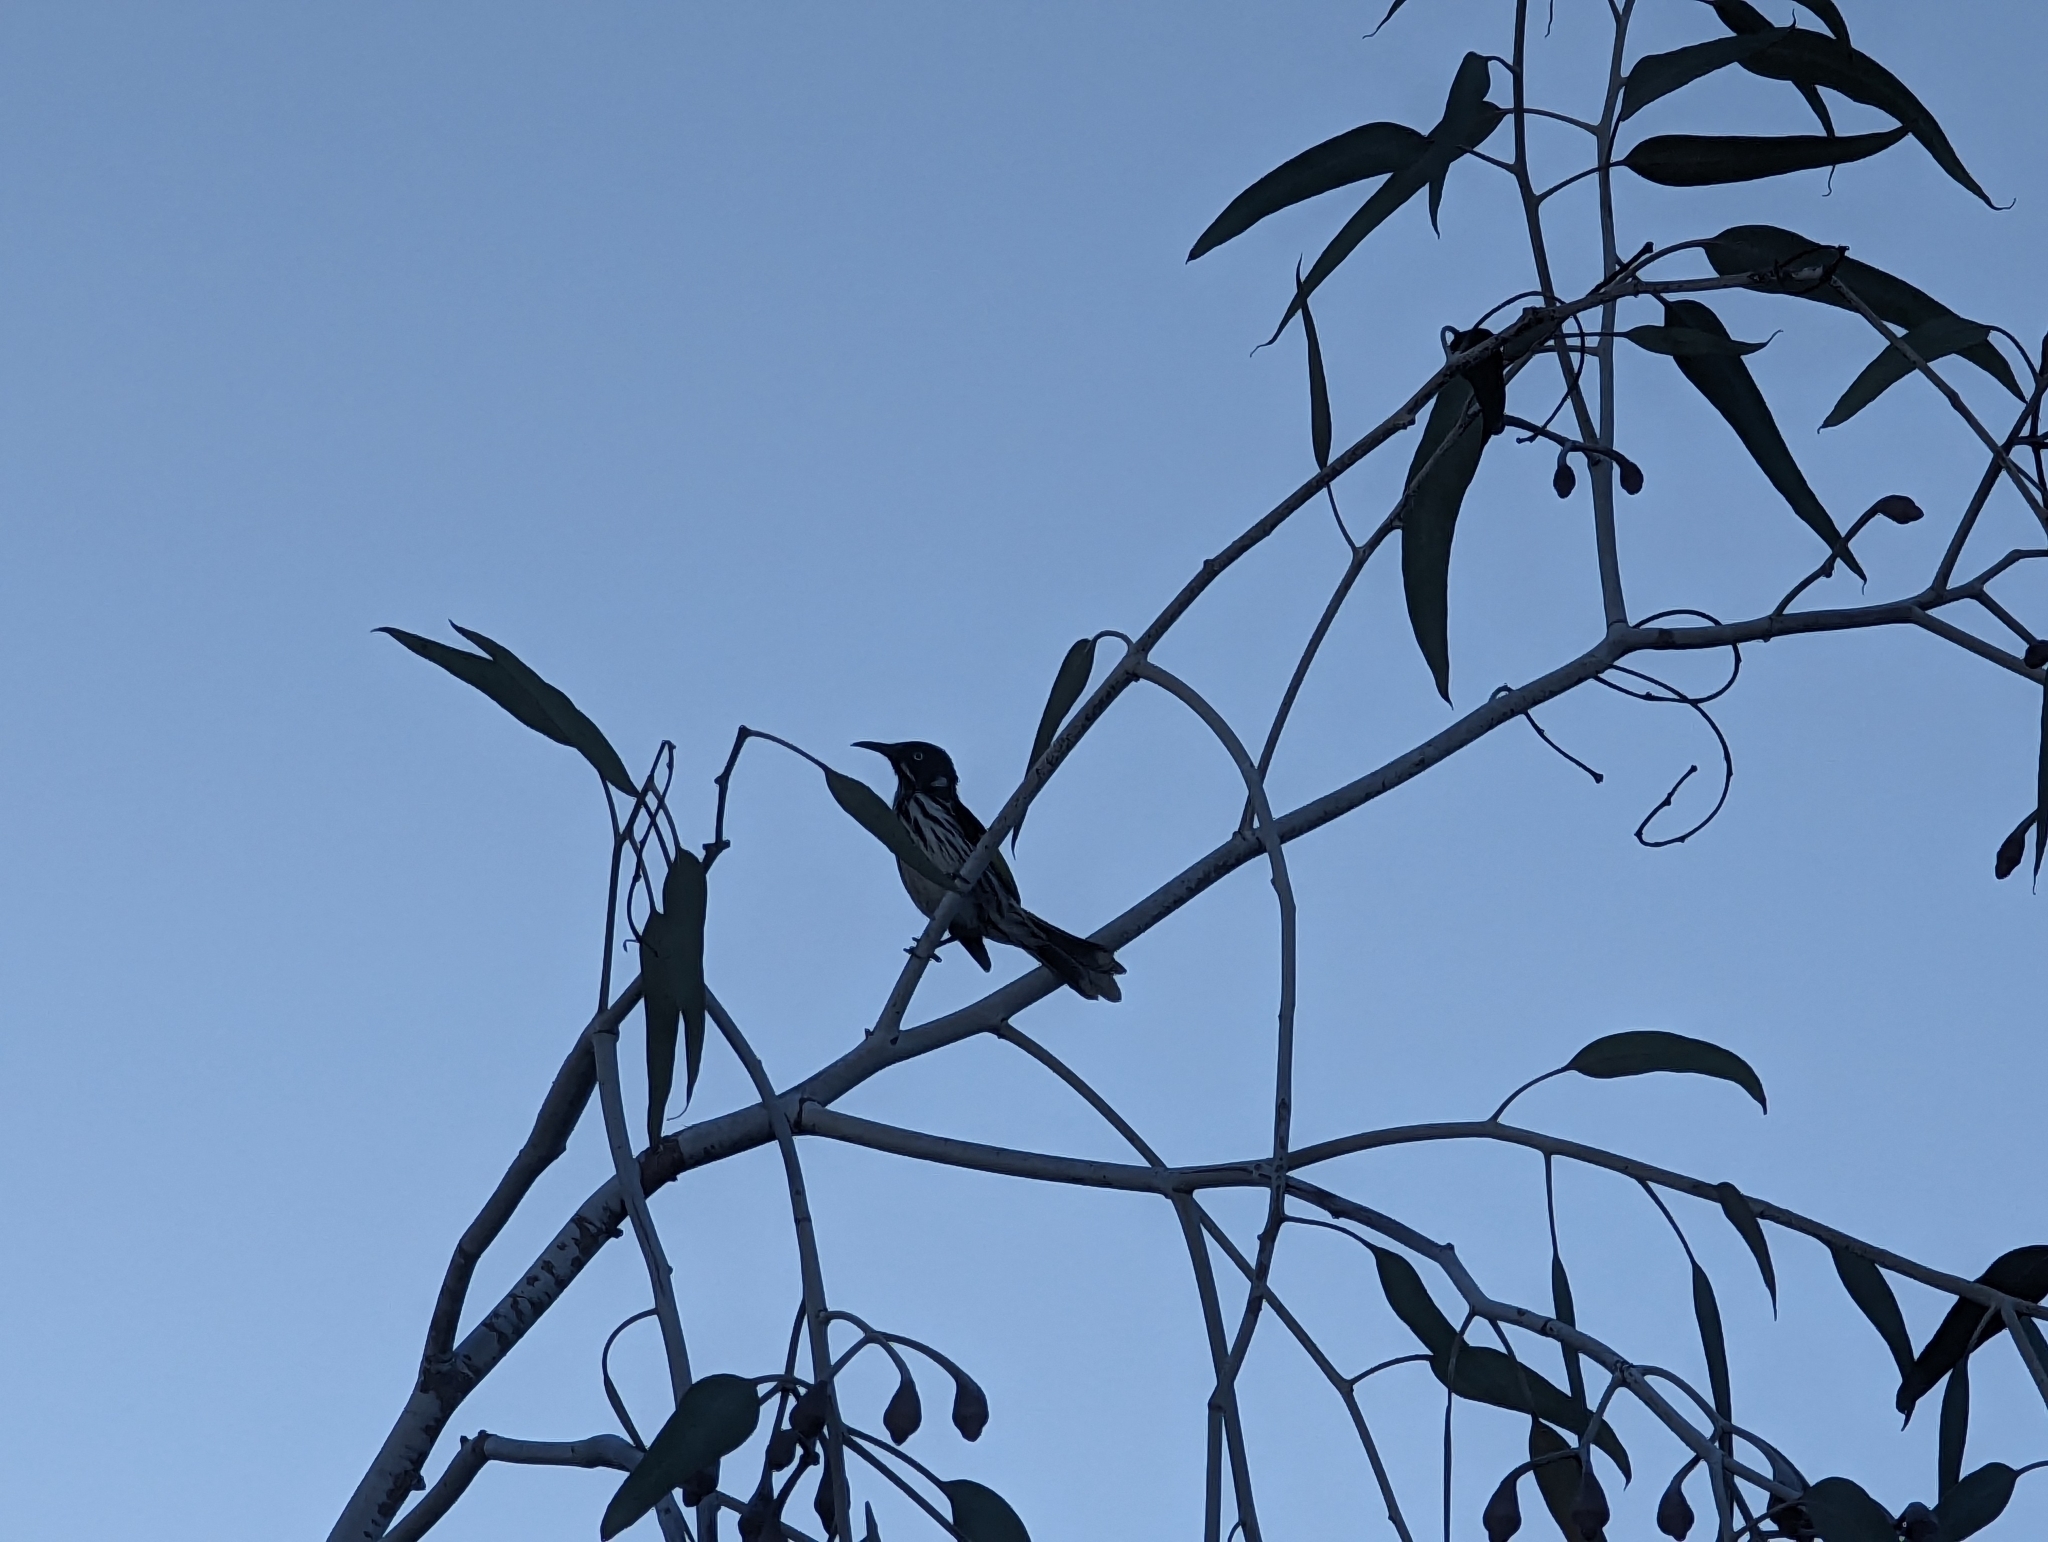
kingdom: Animalia
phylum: Chordata
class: Aves
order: Passeriformes
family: Meliphagidae
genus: Phylidonyris
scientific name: Phylidonyris novaehollandiae
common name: New holland honeyeater
